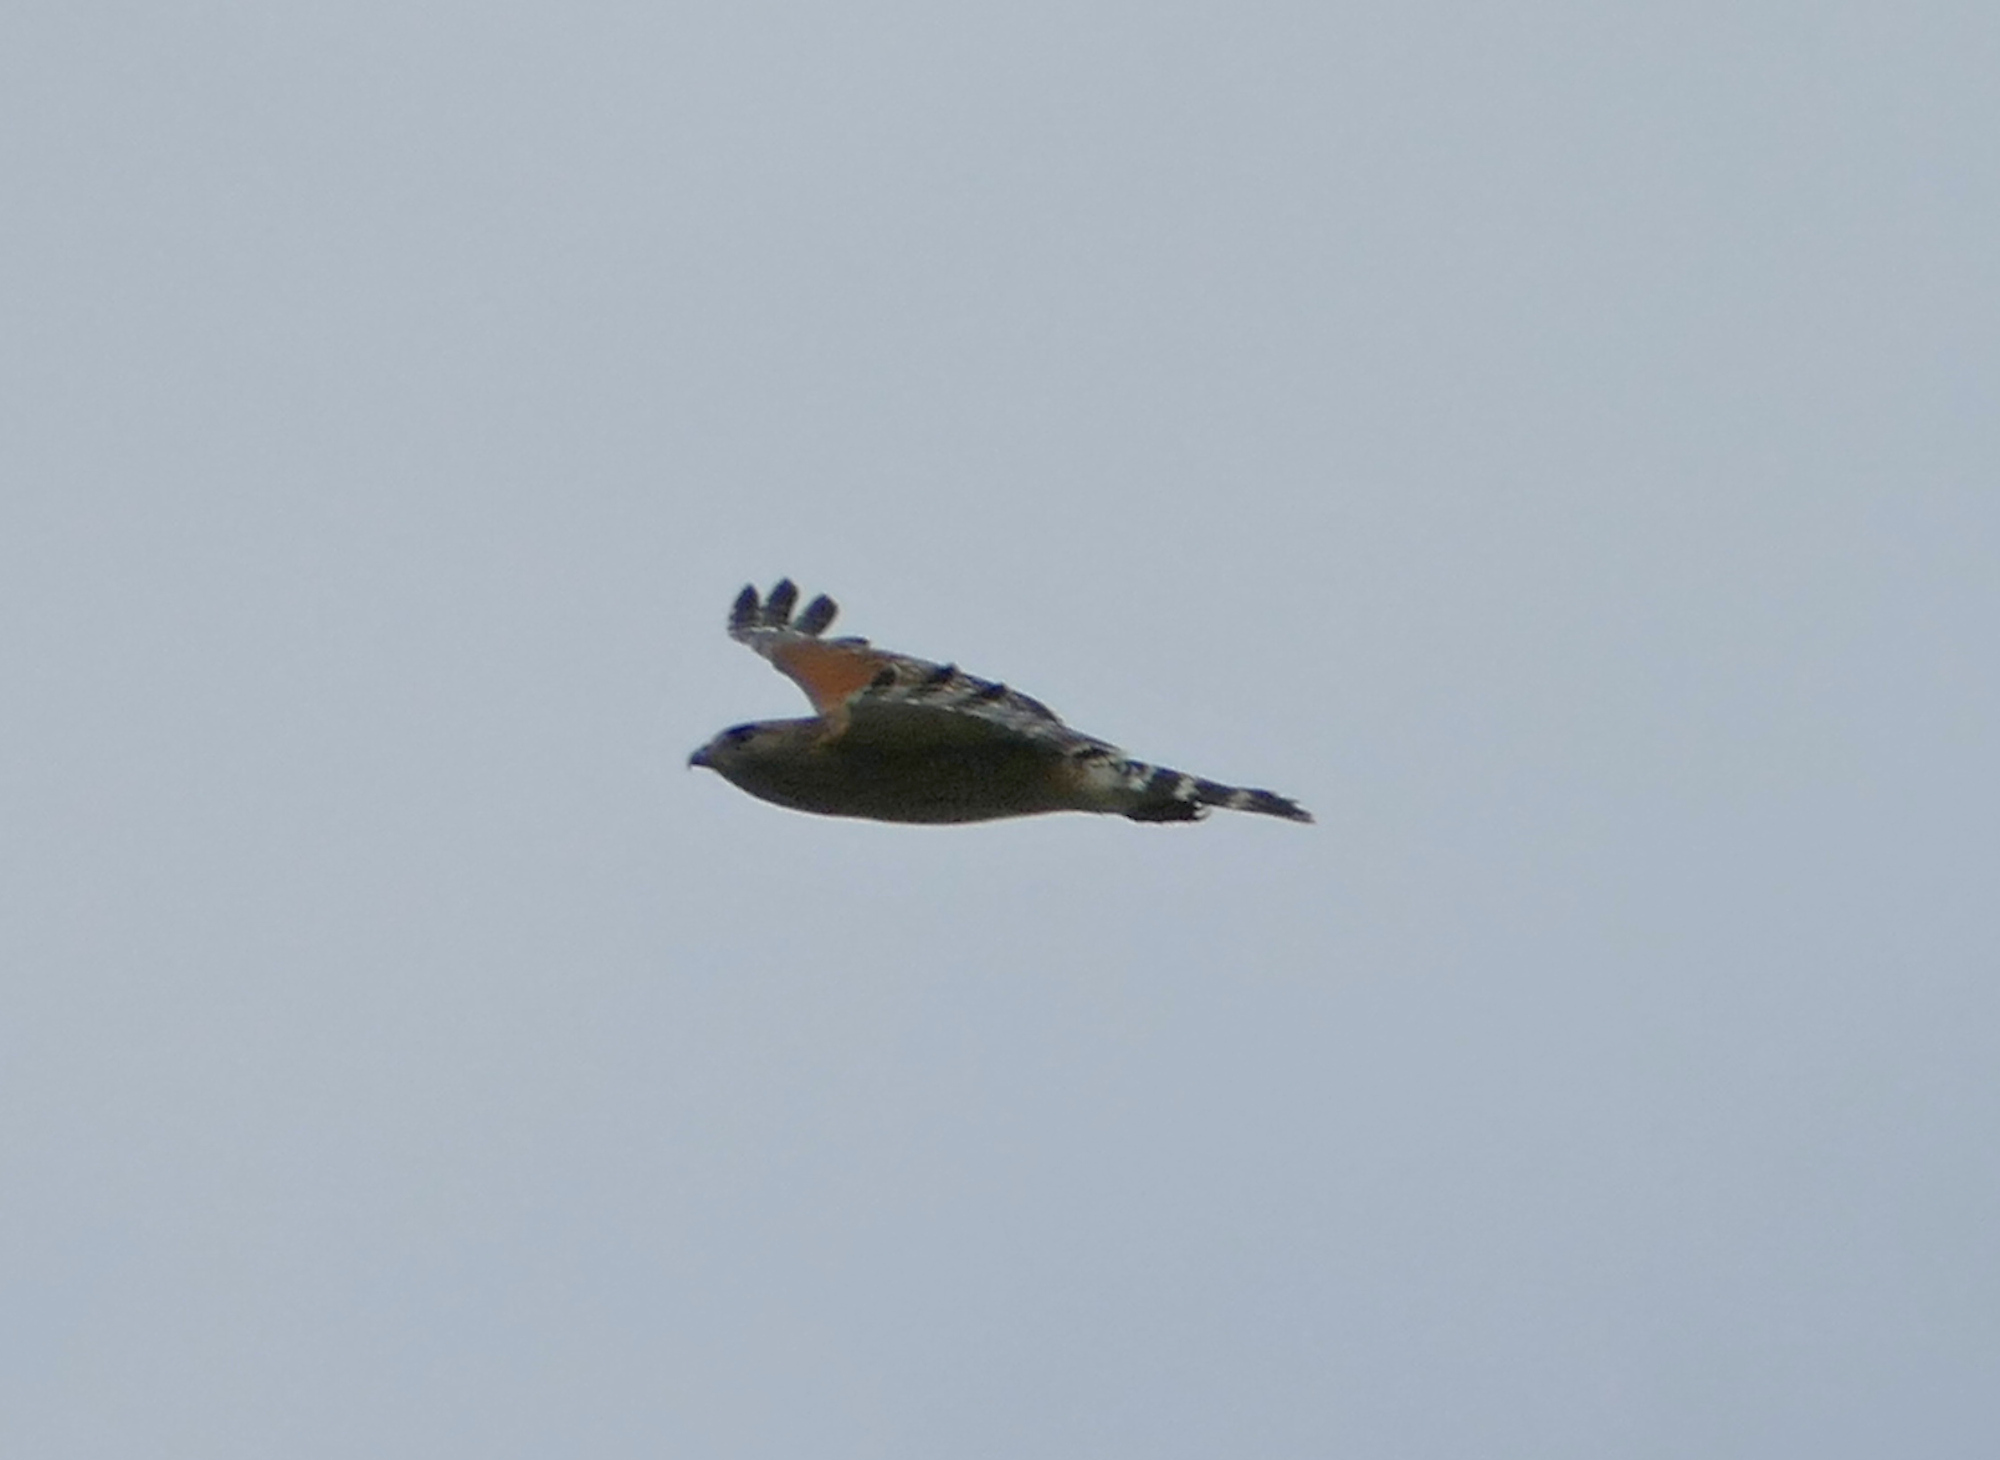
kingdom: Animalia
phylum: Chordata
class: Aves
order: Accipitriformes
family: Accipitridae
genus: Buteo
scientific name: Buteo lineatus
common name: Red-shouldered hawk
